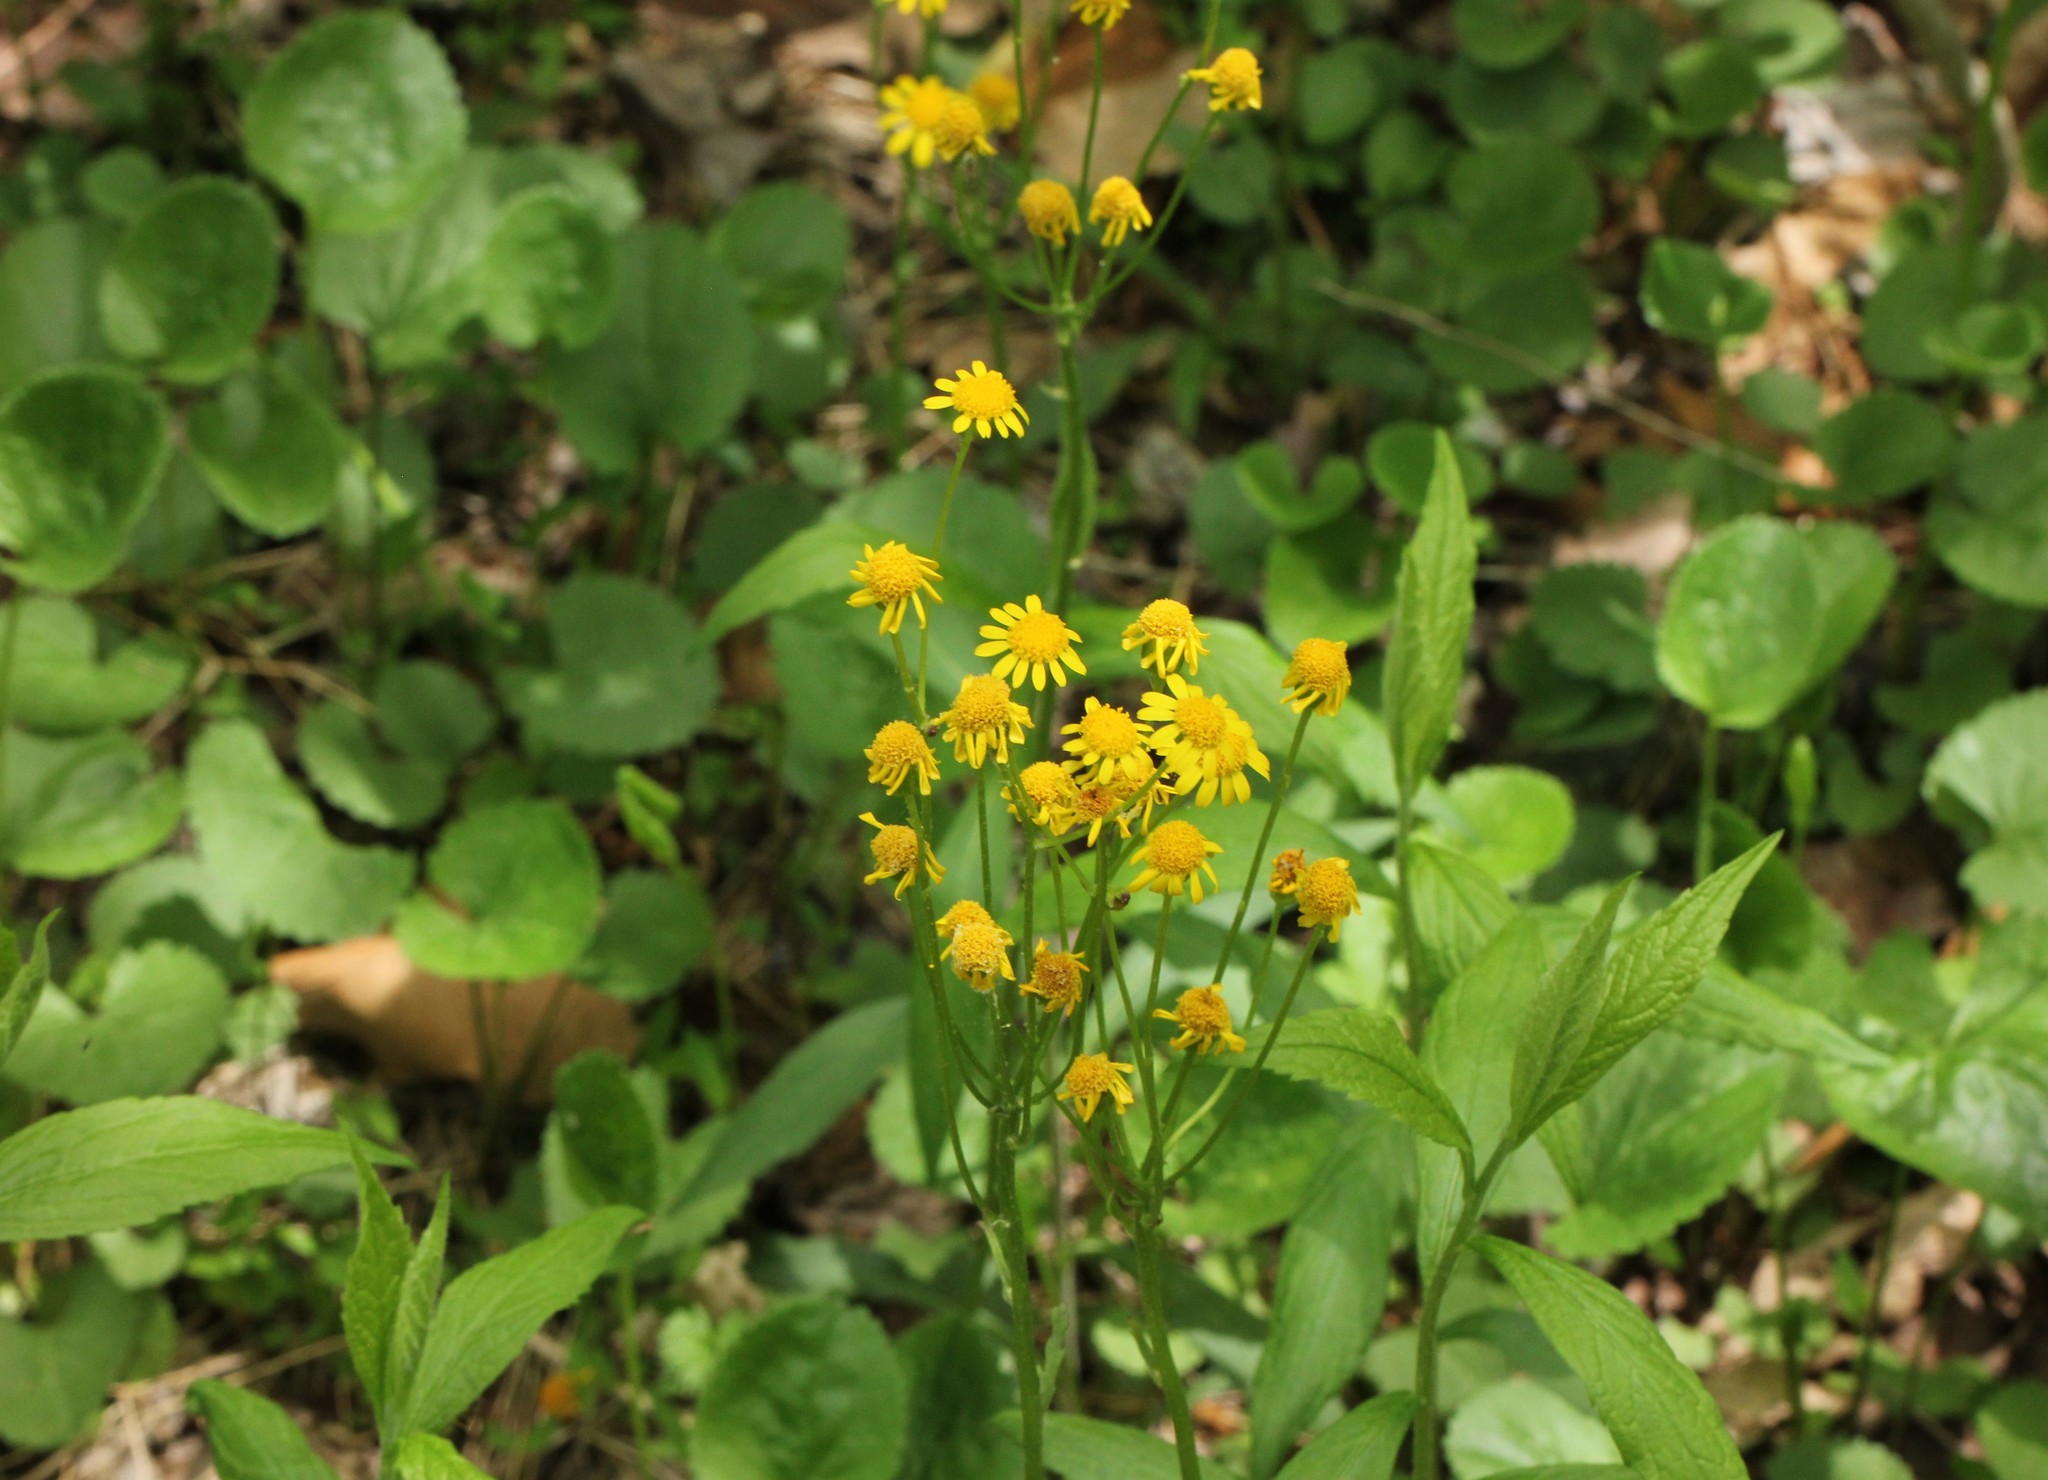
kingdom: Plantae
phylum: Tracheophyta
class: Magnoliopsida
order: Asterales
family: Asteraceae
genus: Packera
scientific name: Packera aurea
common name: Golden groundsel
